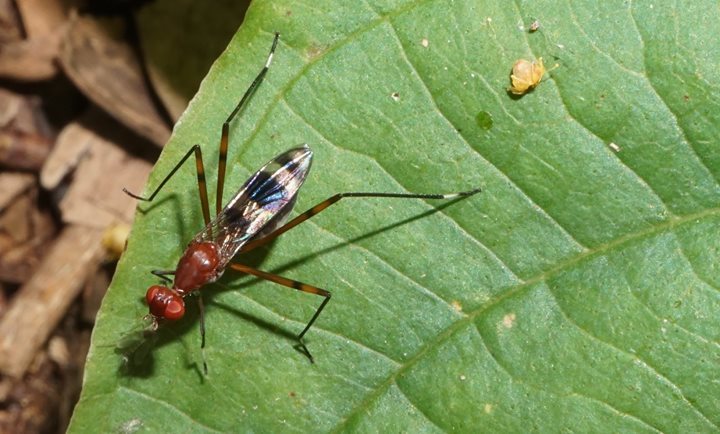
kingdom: Animalia
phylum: Arthropoda
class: Insecta
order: Diptera
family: Micropezidae
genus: Hoplocheiloma
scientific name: Hoplocheiloma totliana
